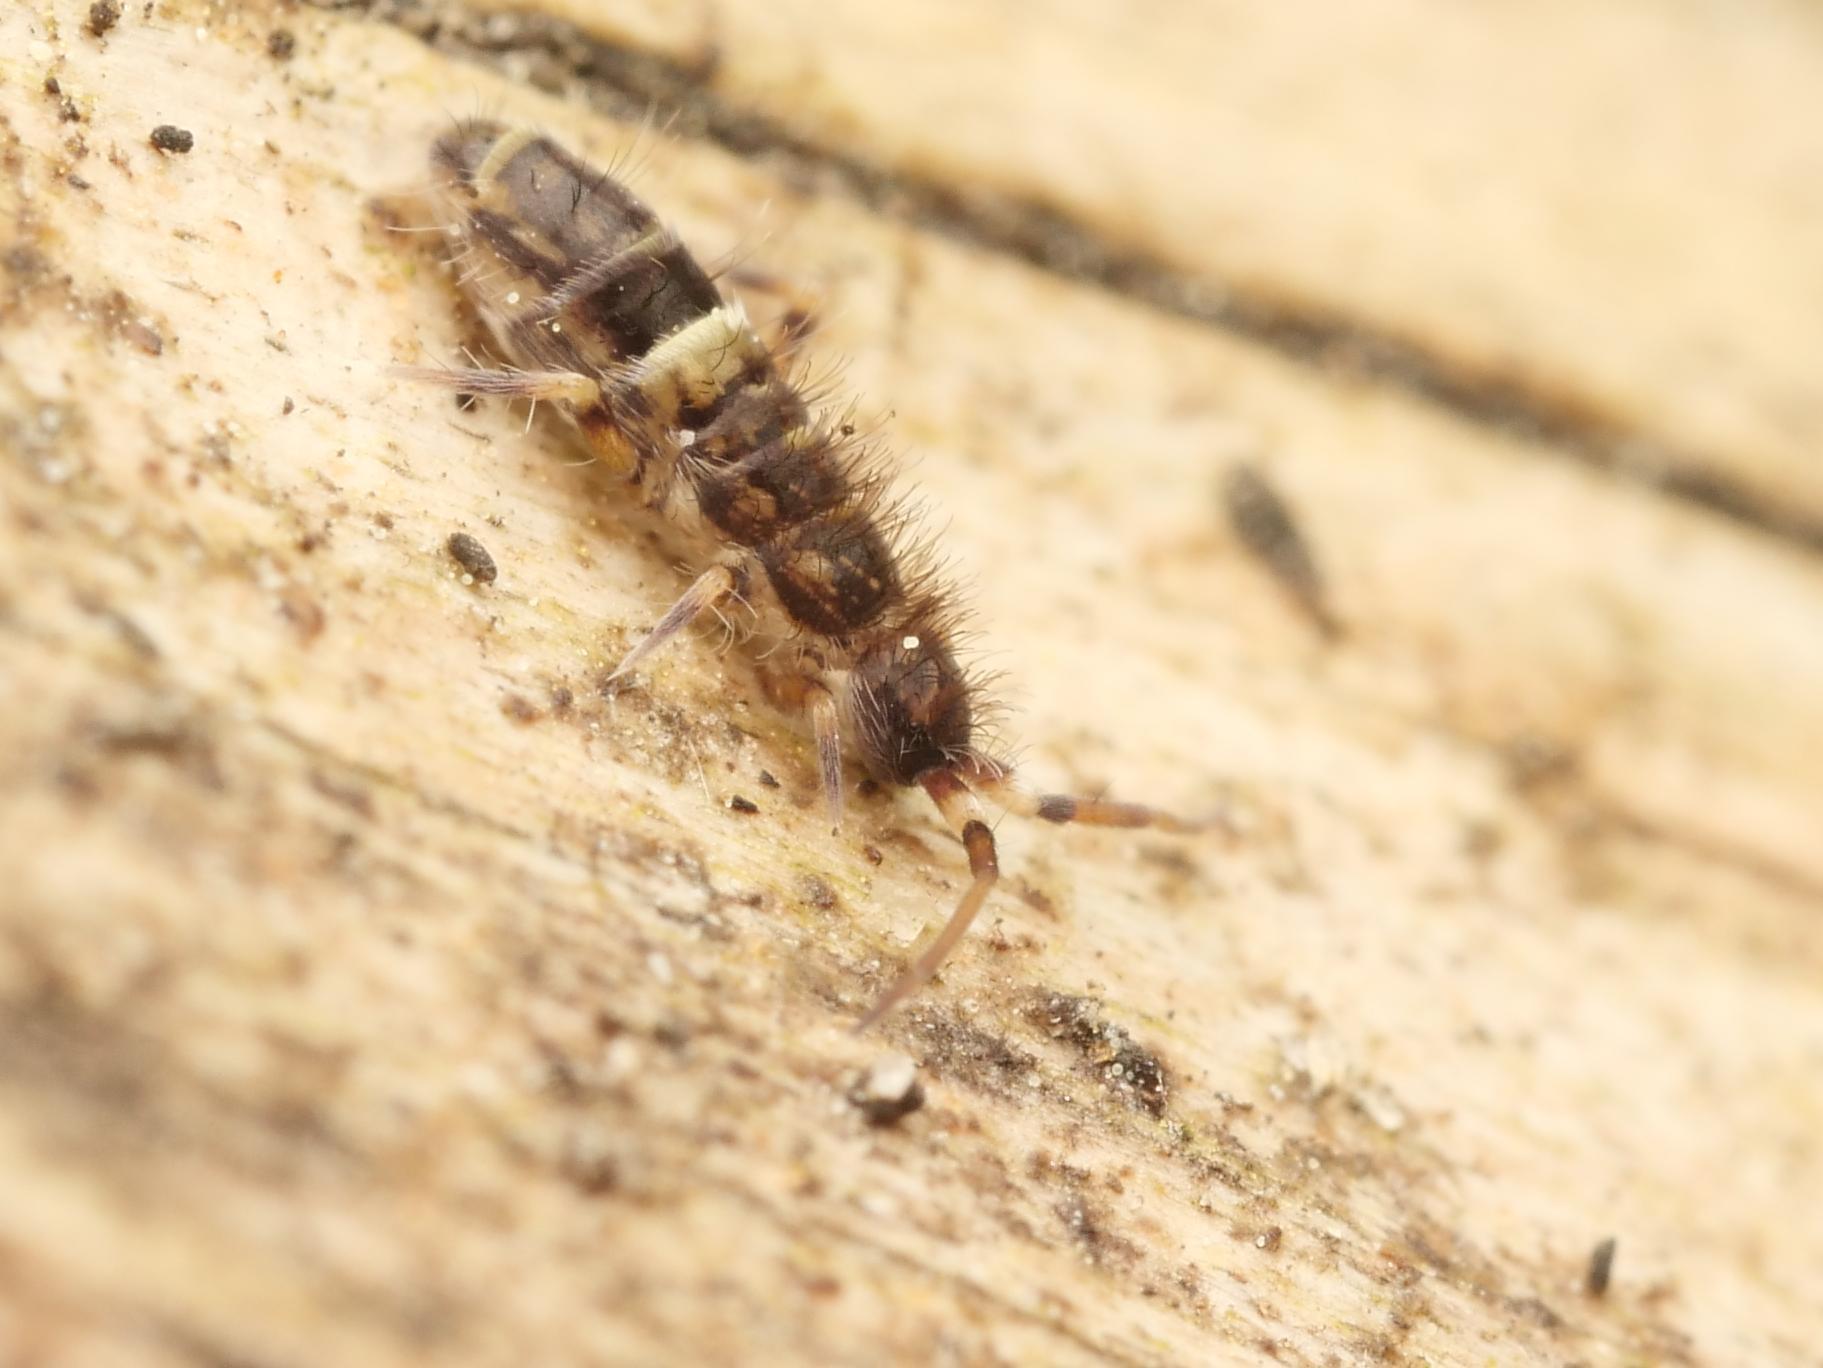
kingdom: Animalia
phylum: Arthropoda
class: Collembola
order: Entomobryomorpha
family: Orchesellidae
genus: Orchesella
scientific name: Orchesella cincta
